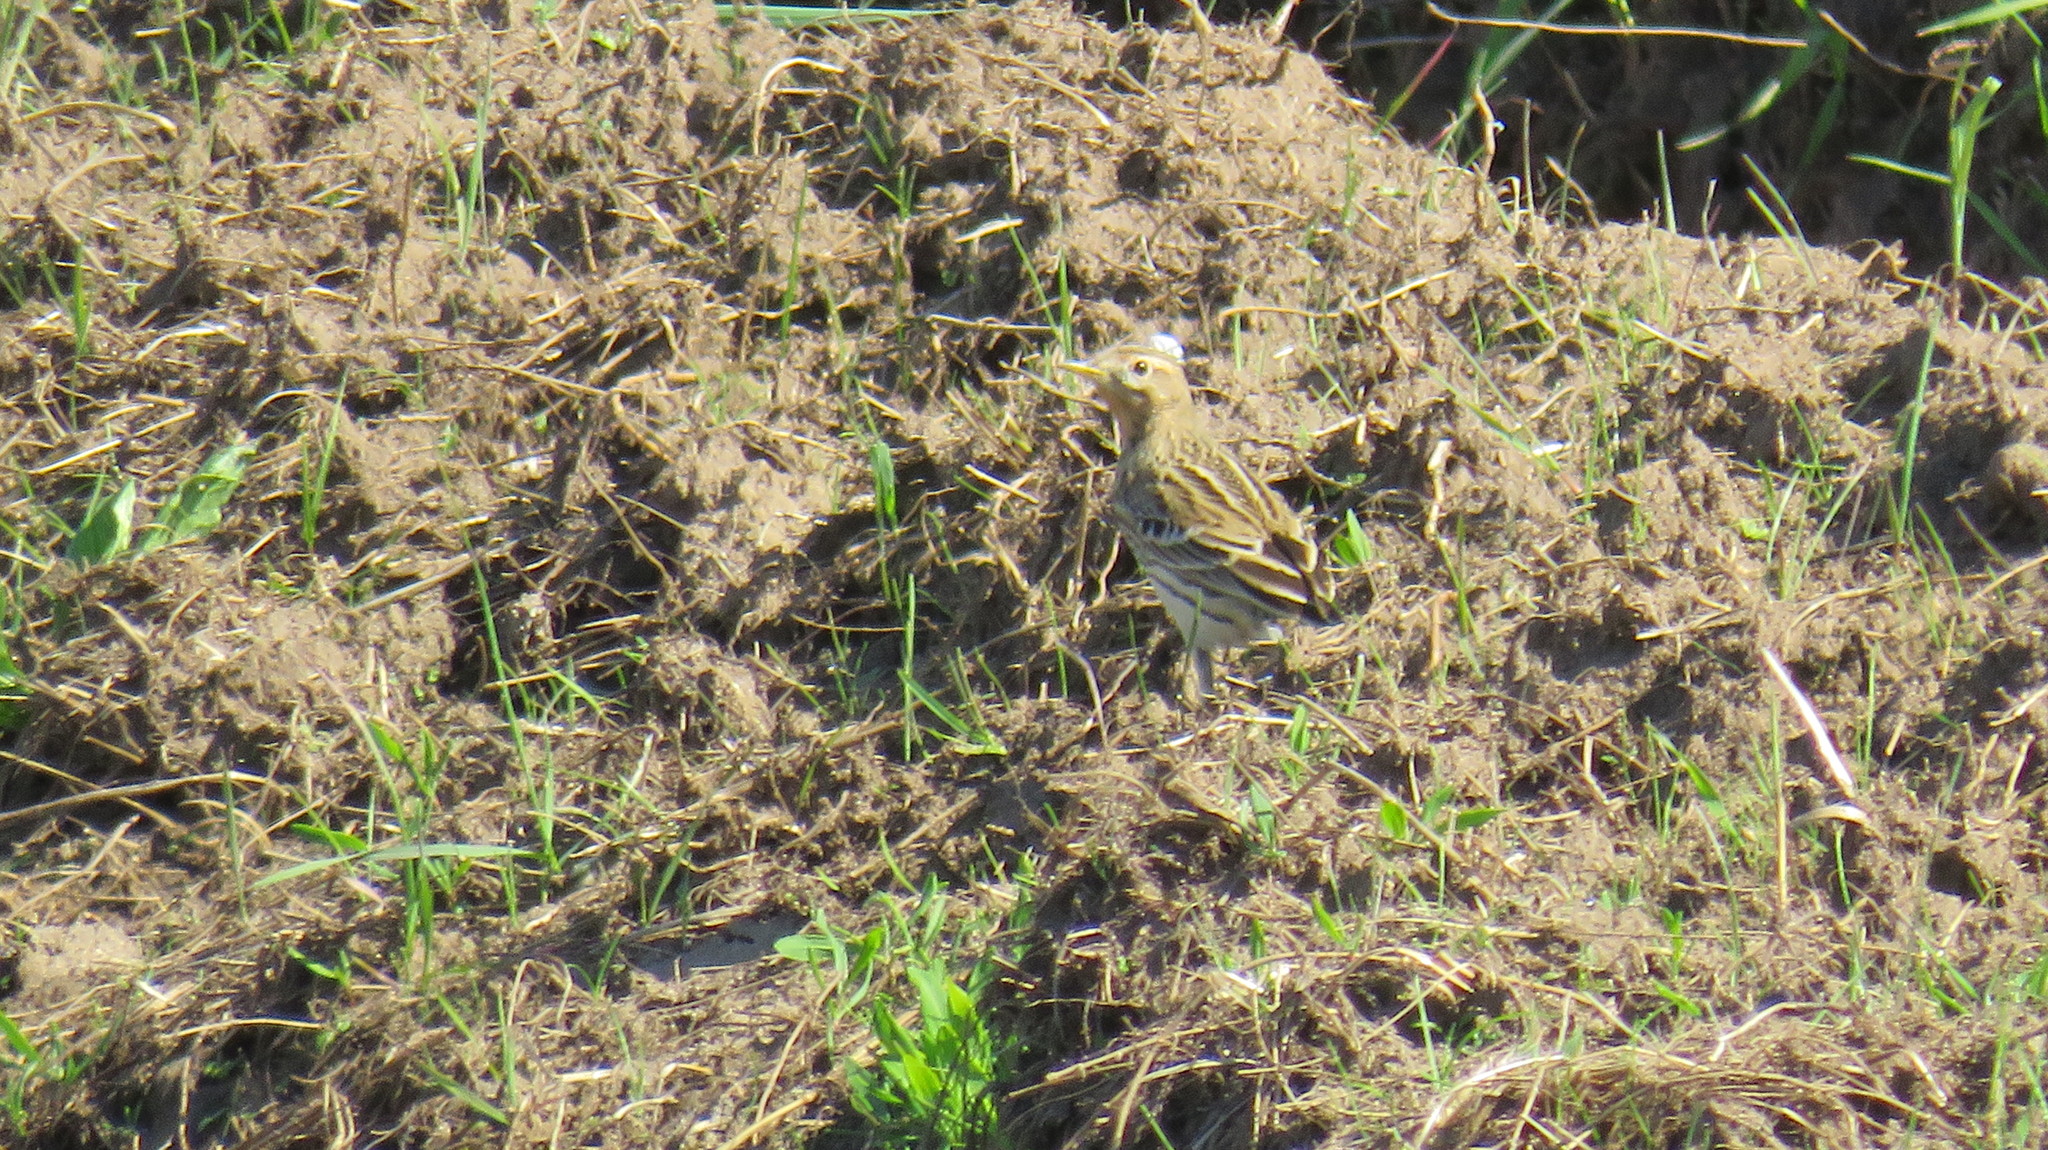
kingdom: Animalia
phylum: Chordata
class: Aves
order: Passeriformes
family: Motacillidae
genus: Anthus
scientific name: Anthus cervinus
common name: Red-throated pipit
